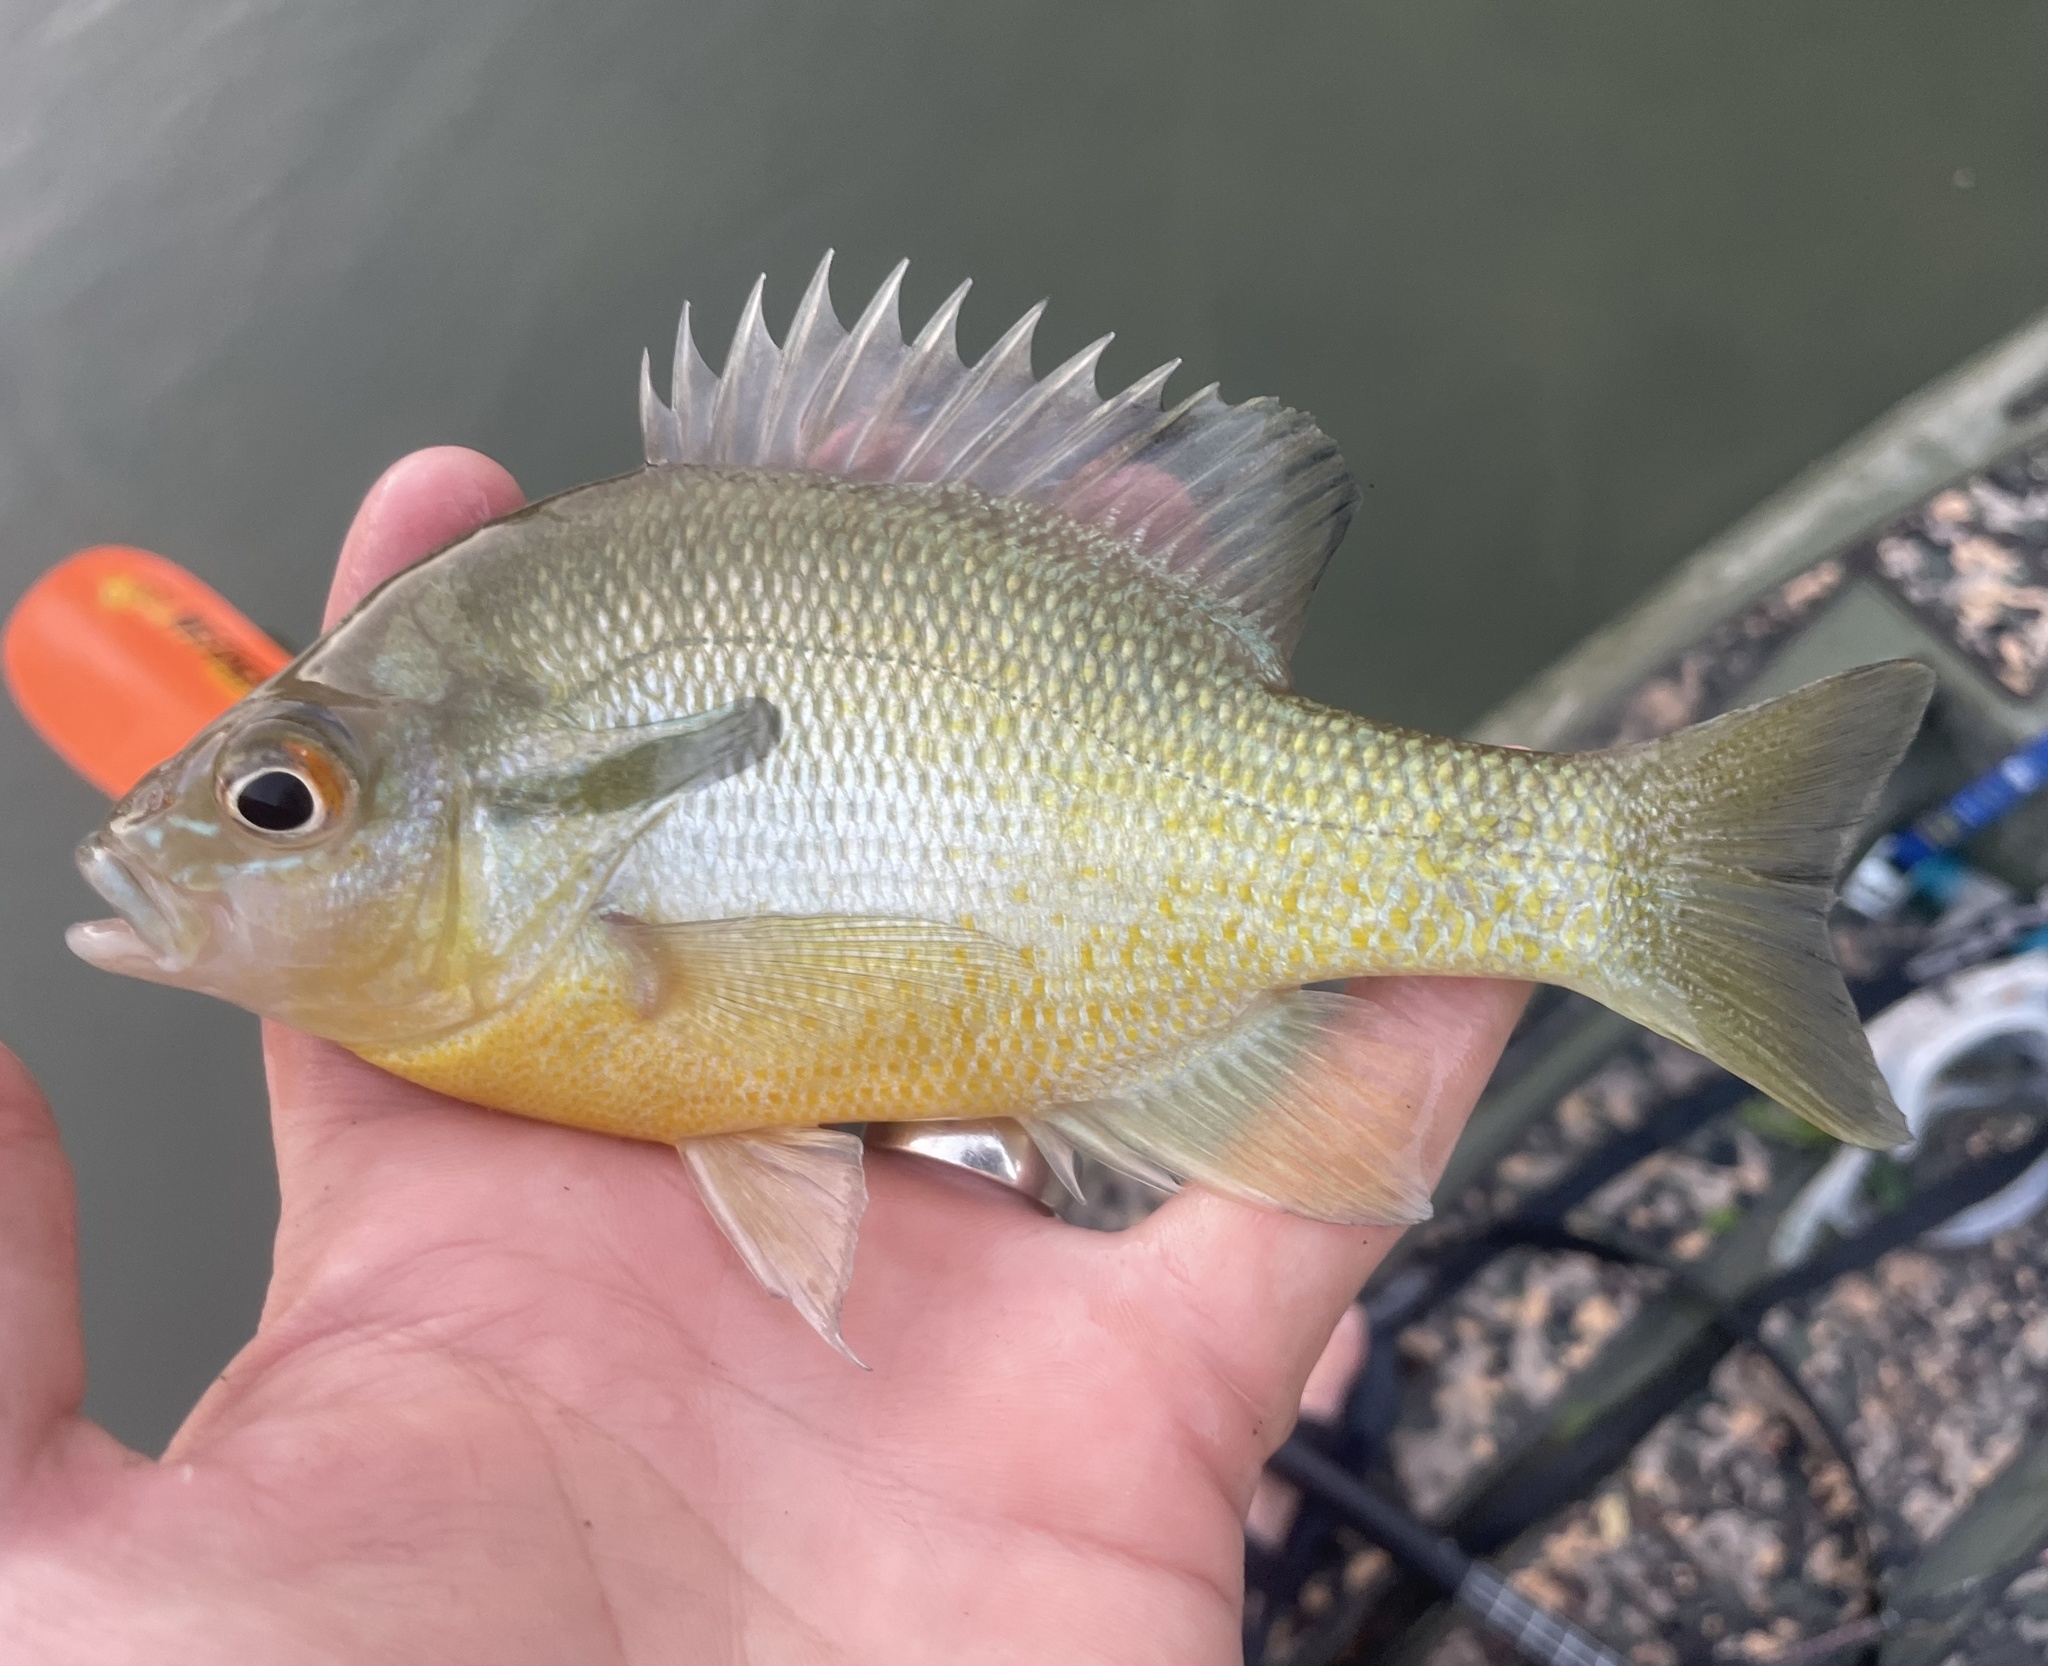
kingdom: Animalia
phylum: Chordata
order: Perciformes
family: Centrarchidae
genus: Lepomis
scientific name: Lepomis auritus
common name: Redbreast sunfish
